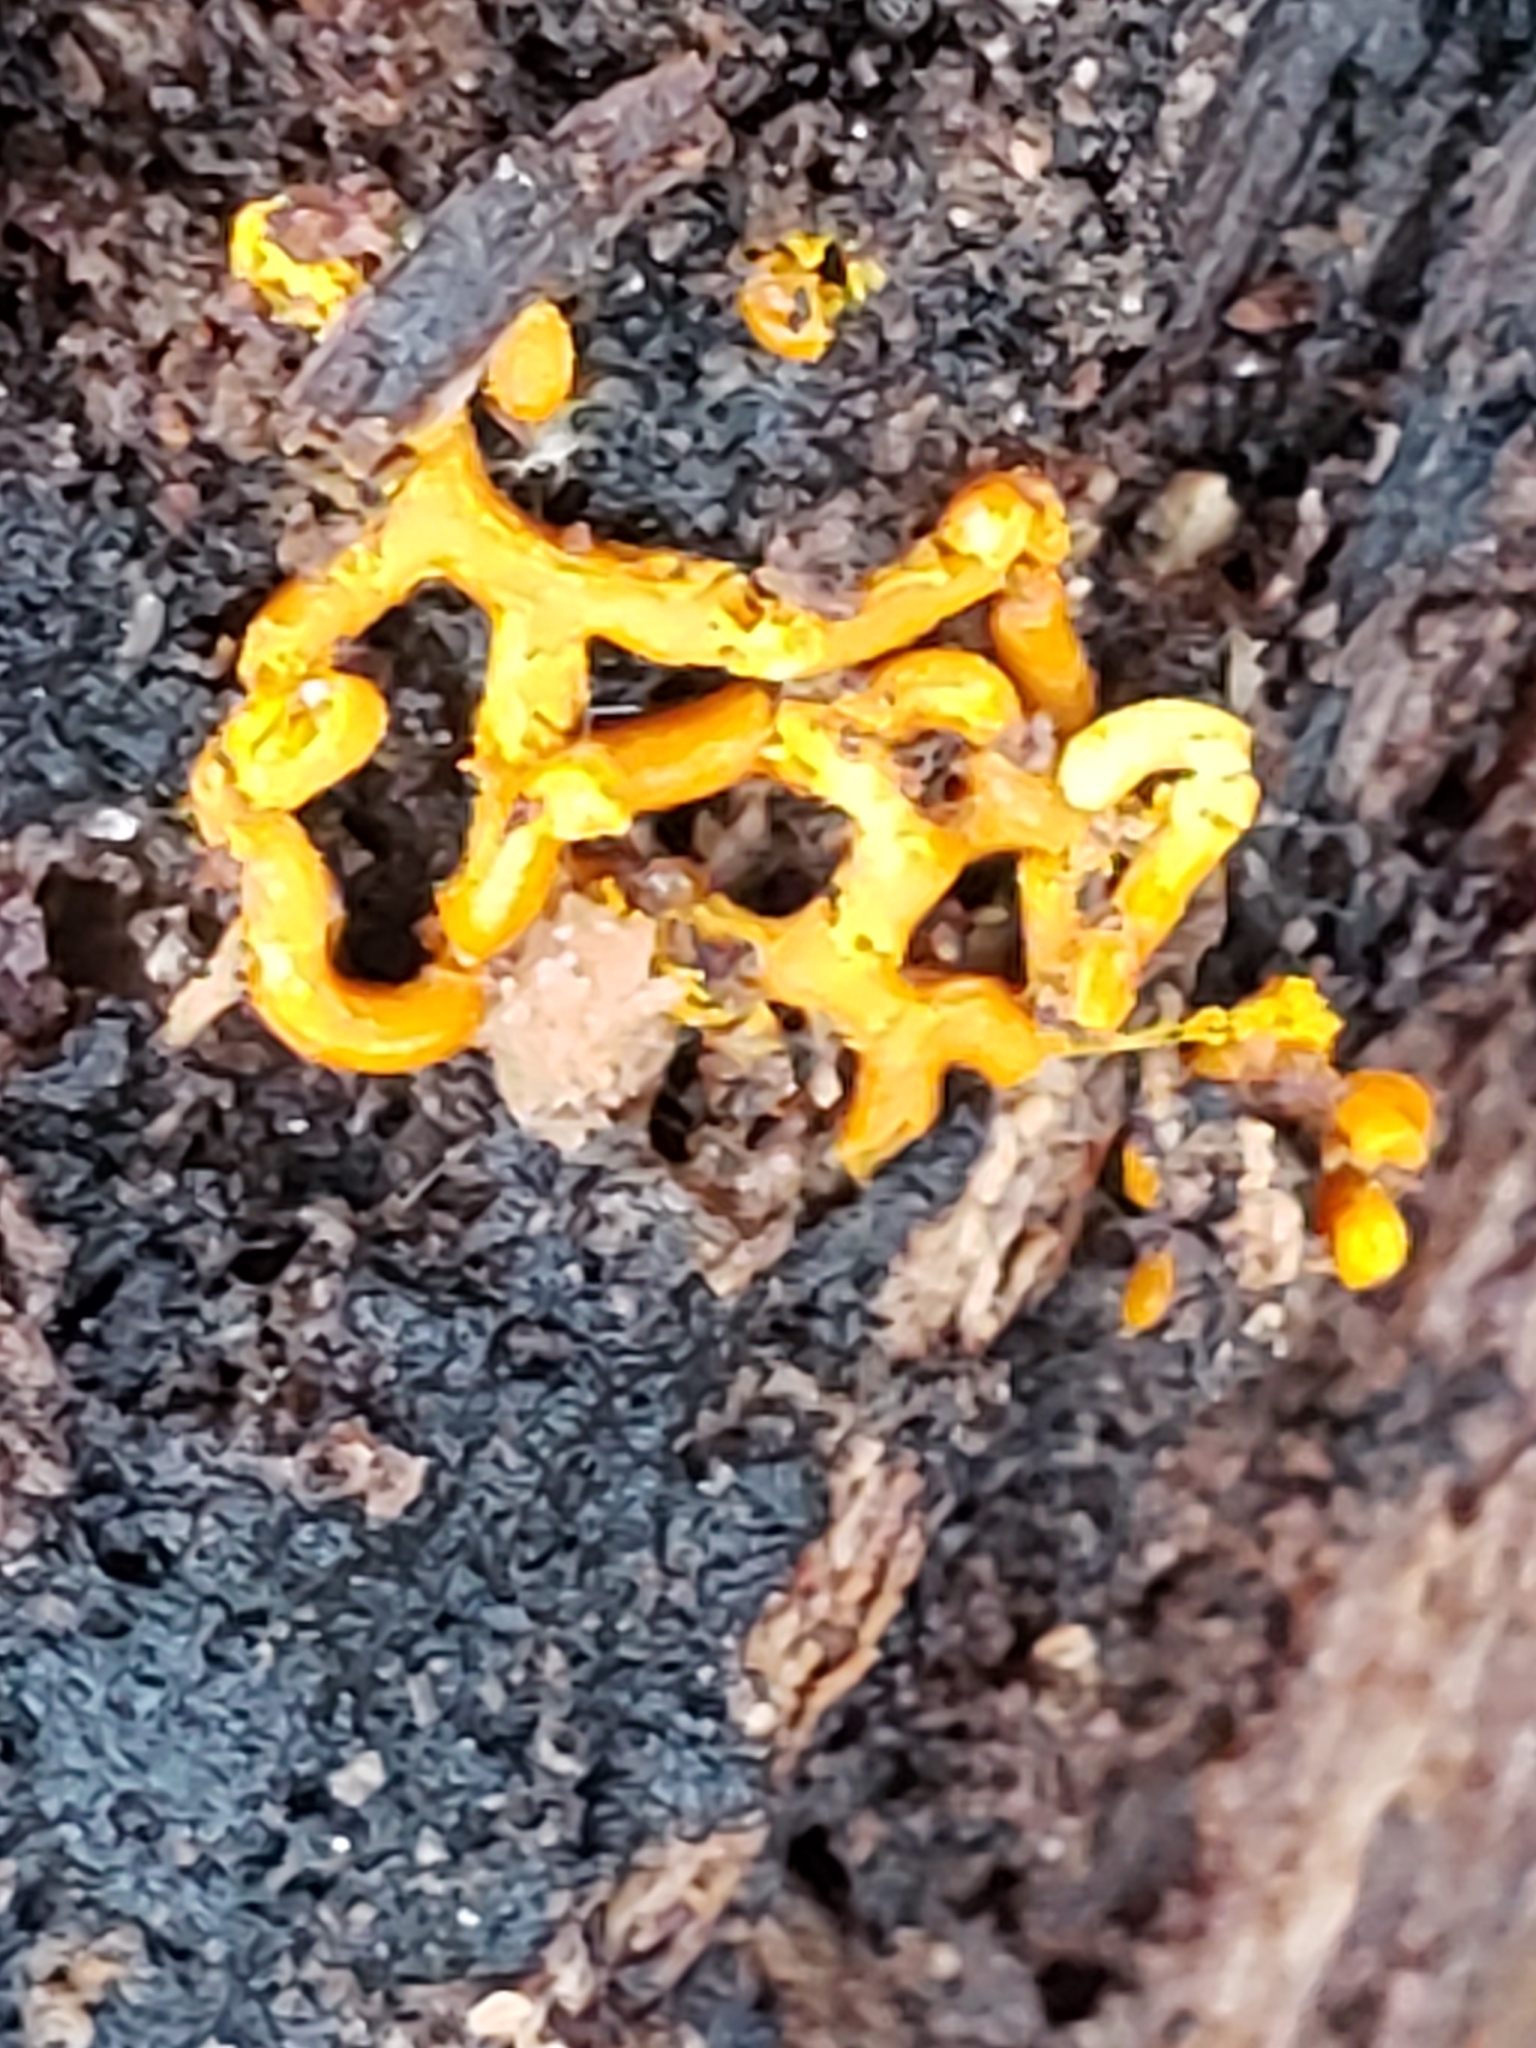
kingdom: Protozoa
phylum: Mycetozoa
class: Myxomycetes
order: Trichiales
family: Arcyriaceae
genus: Hemitrichia
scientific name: Hemitrichia serpula
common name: Pretzel slime mold
